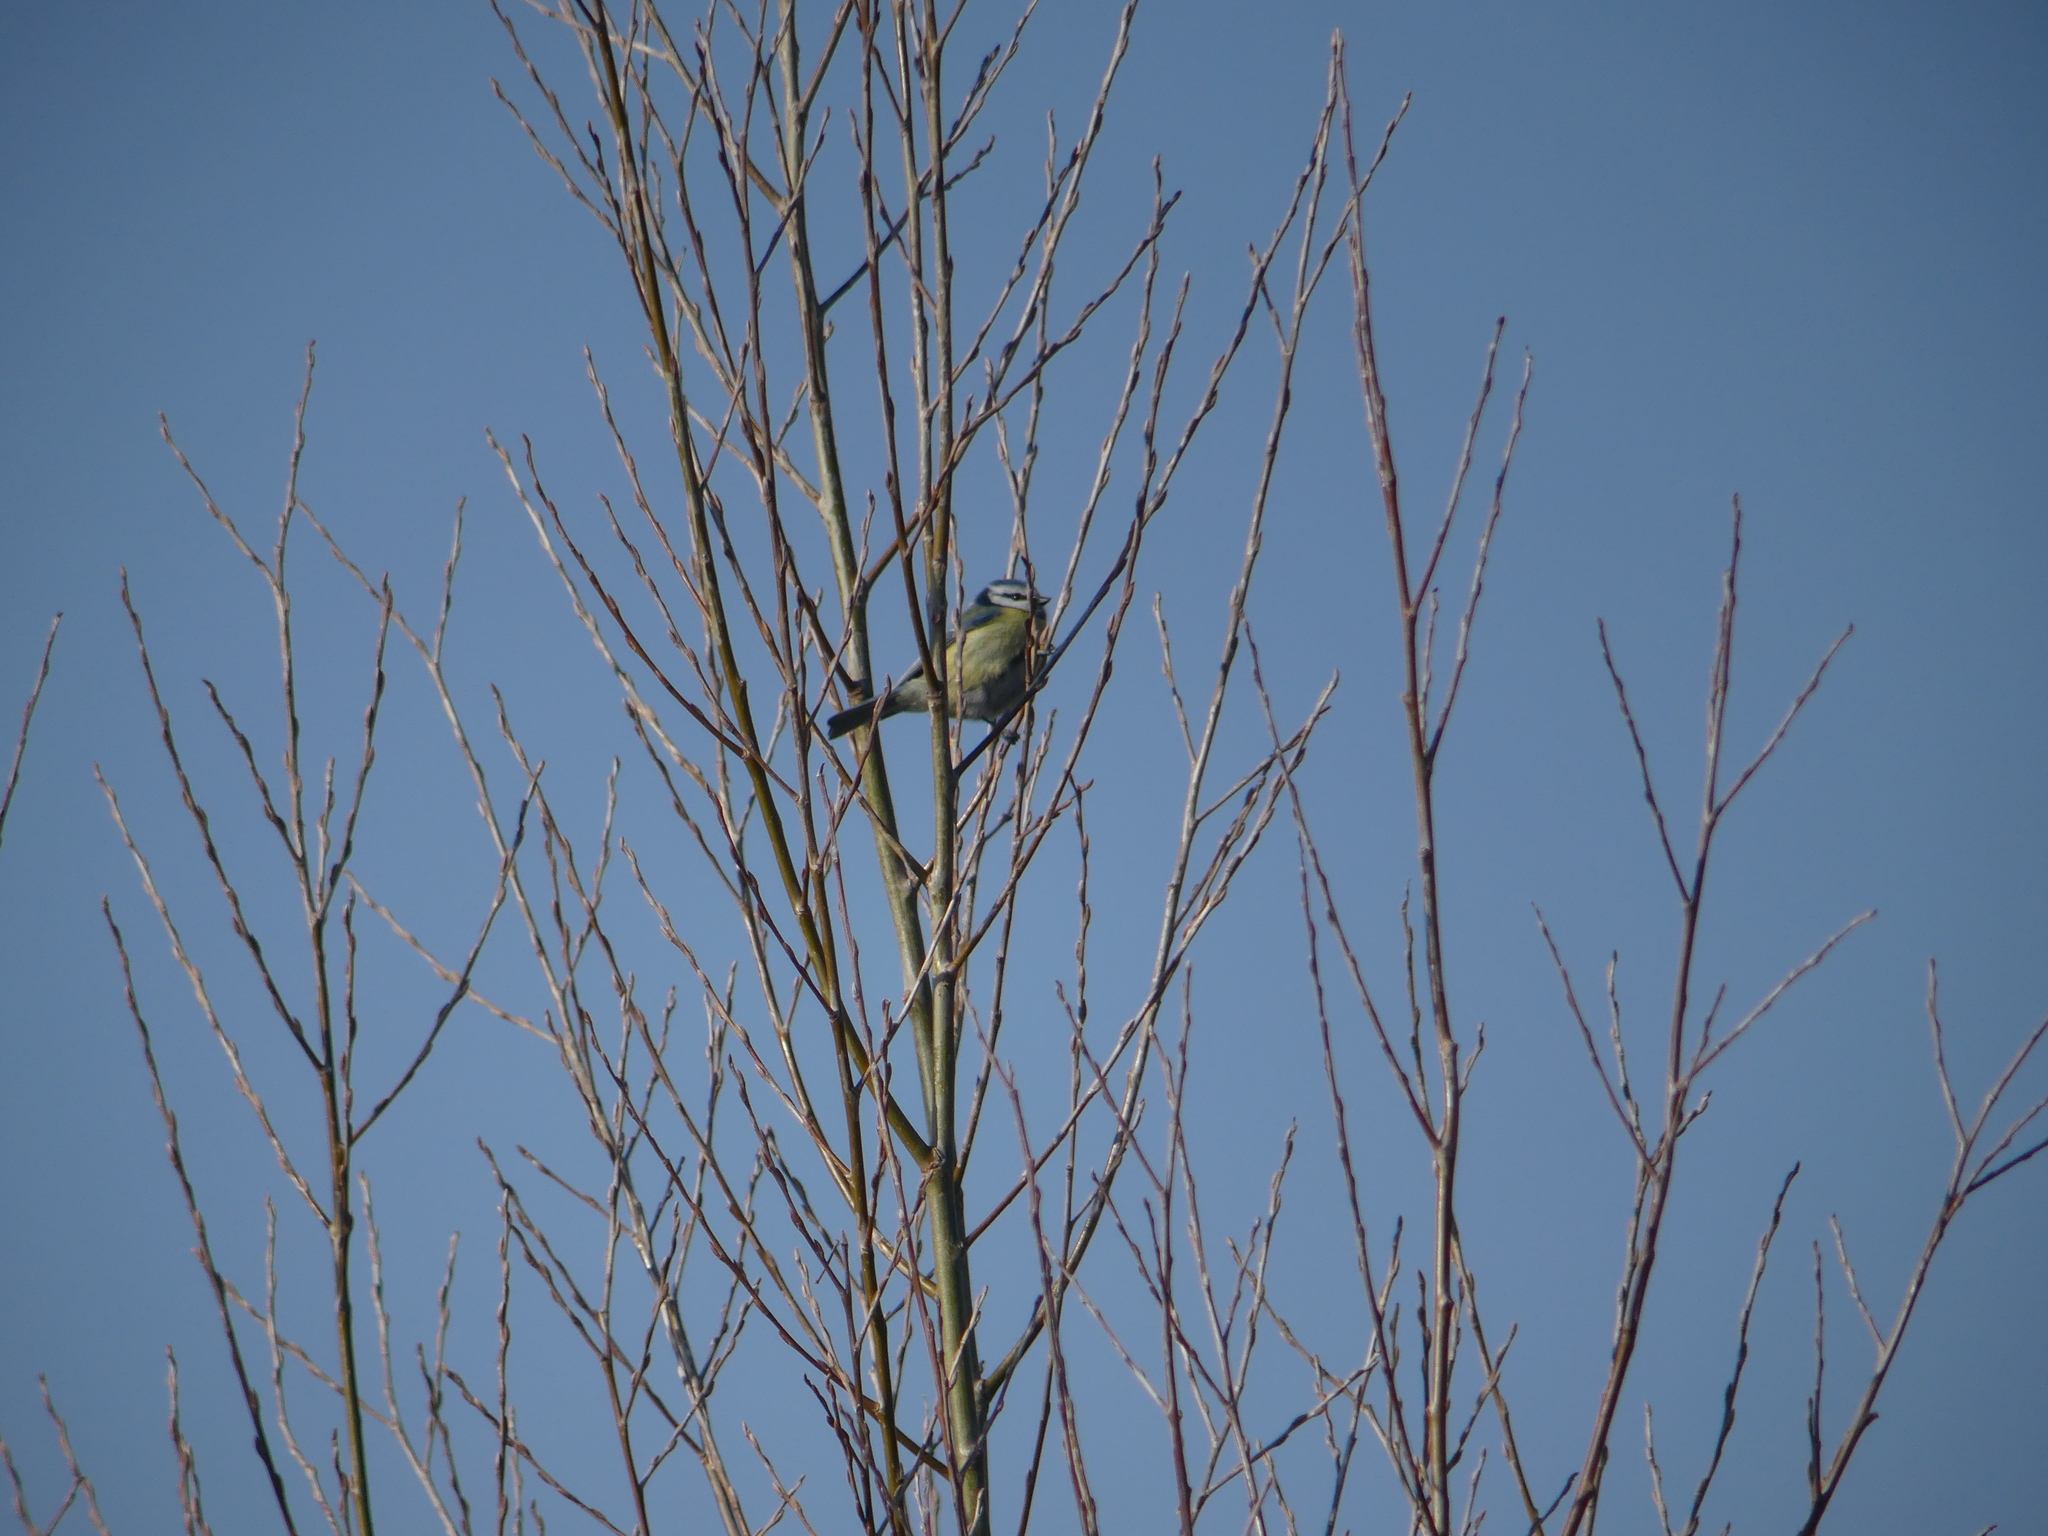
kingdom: Animalia
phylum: Chordata
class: Aves
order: Passeriformes
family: Paridae
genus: Cyanistes
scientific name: Cyanistes caeruleus
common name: Eurasian blue tit
